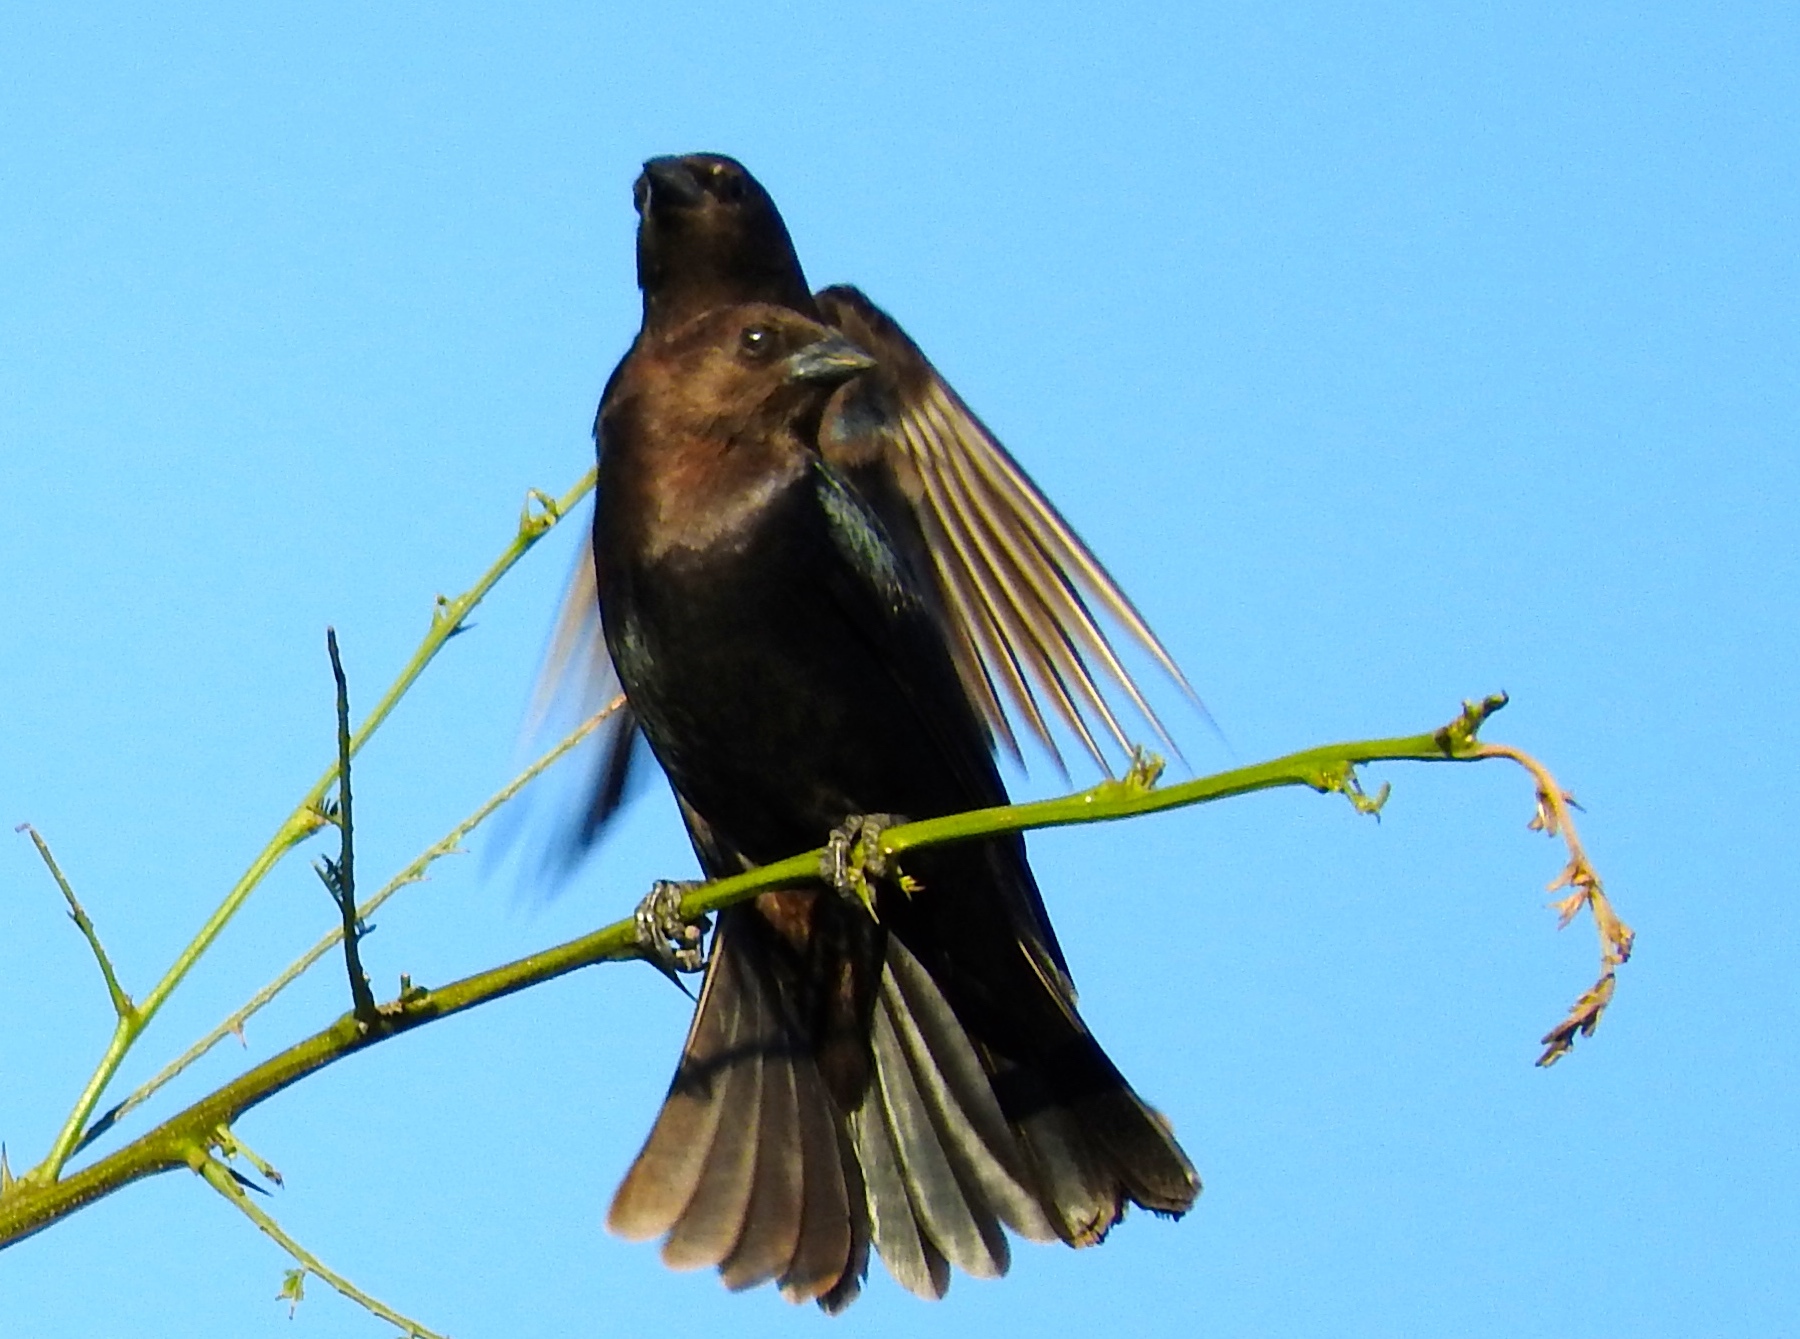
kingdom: Animalia
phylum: Chordata
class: Aves
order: Passeriformes
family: Icteridae
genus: Molothrus
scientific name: Molothrus ater
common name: Brown-headed cowbird
